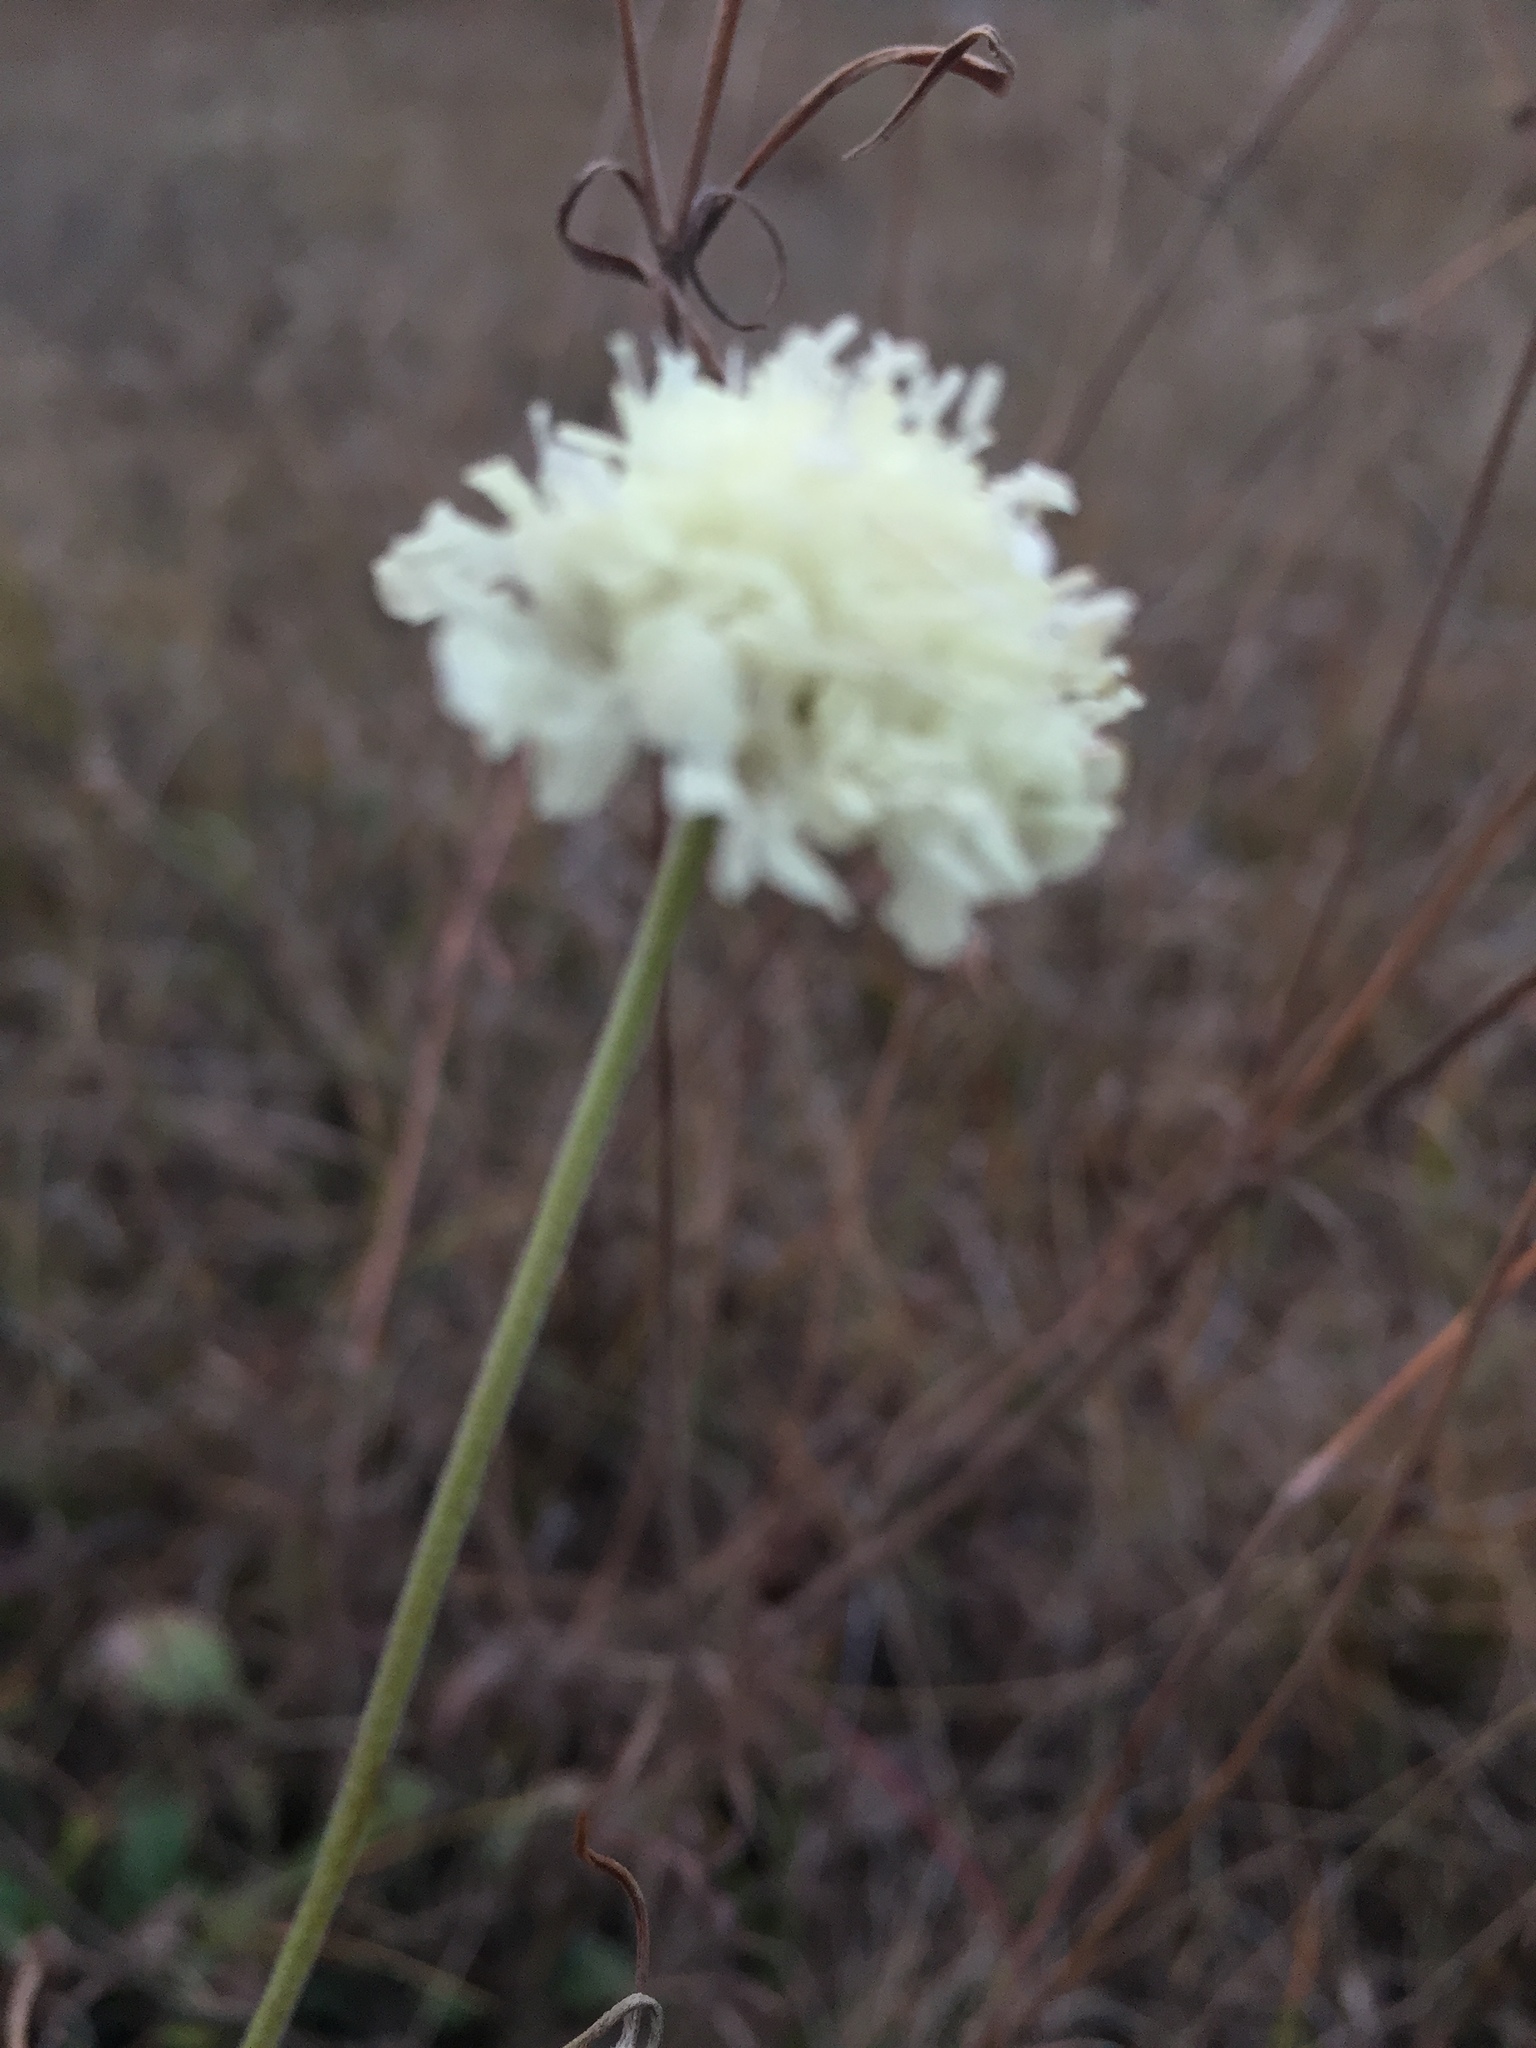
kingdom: Plantae
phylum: Tracheophyta
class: Magnoliopsida
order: Dipsacales
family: Caprifoliaceae
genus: Scabiosa
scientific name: Scabiosa ochroleuca
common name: Cream pincushions
